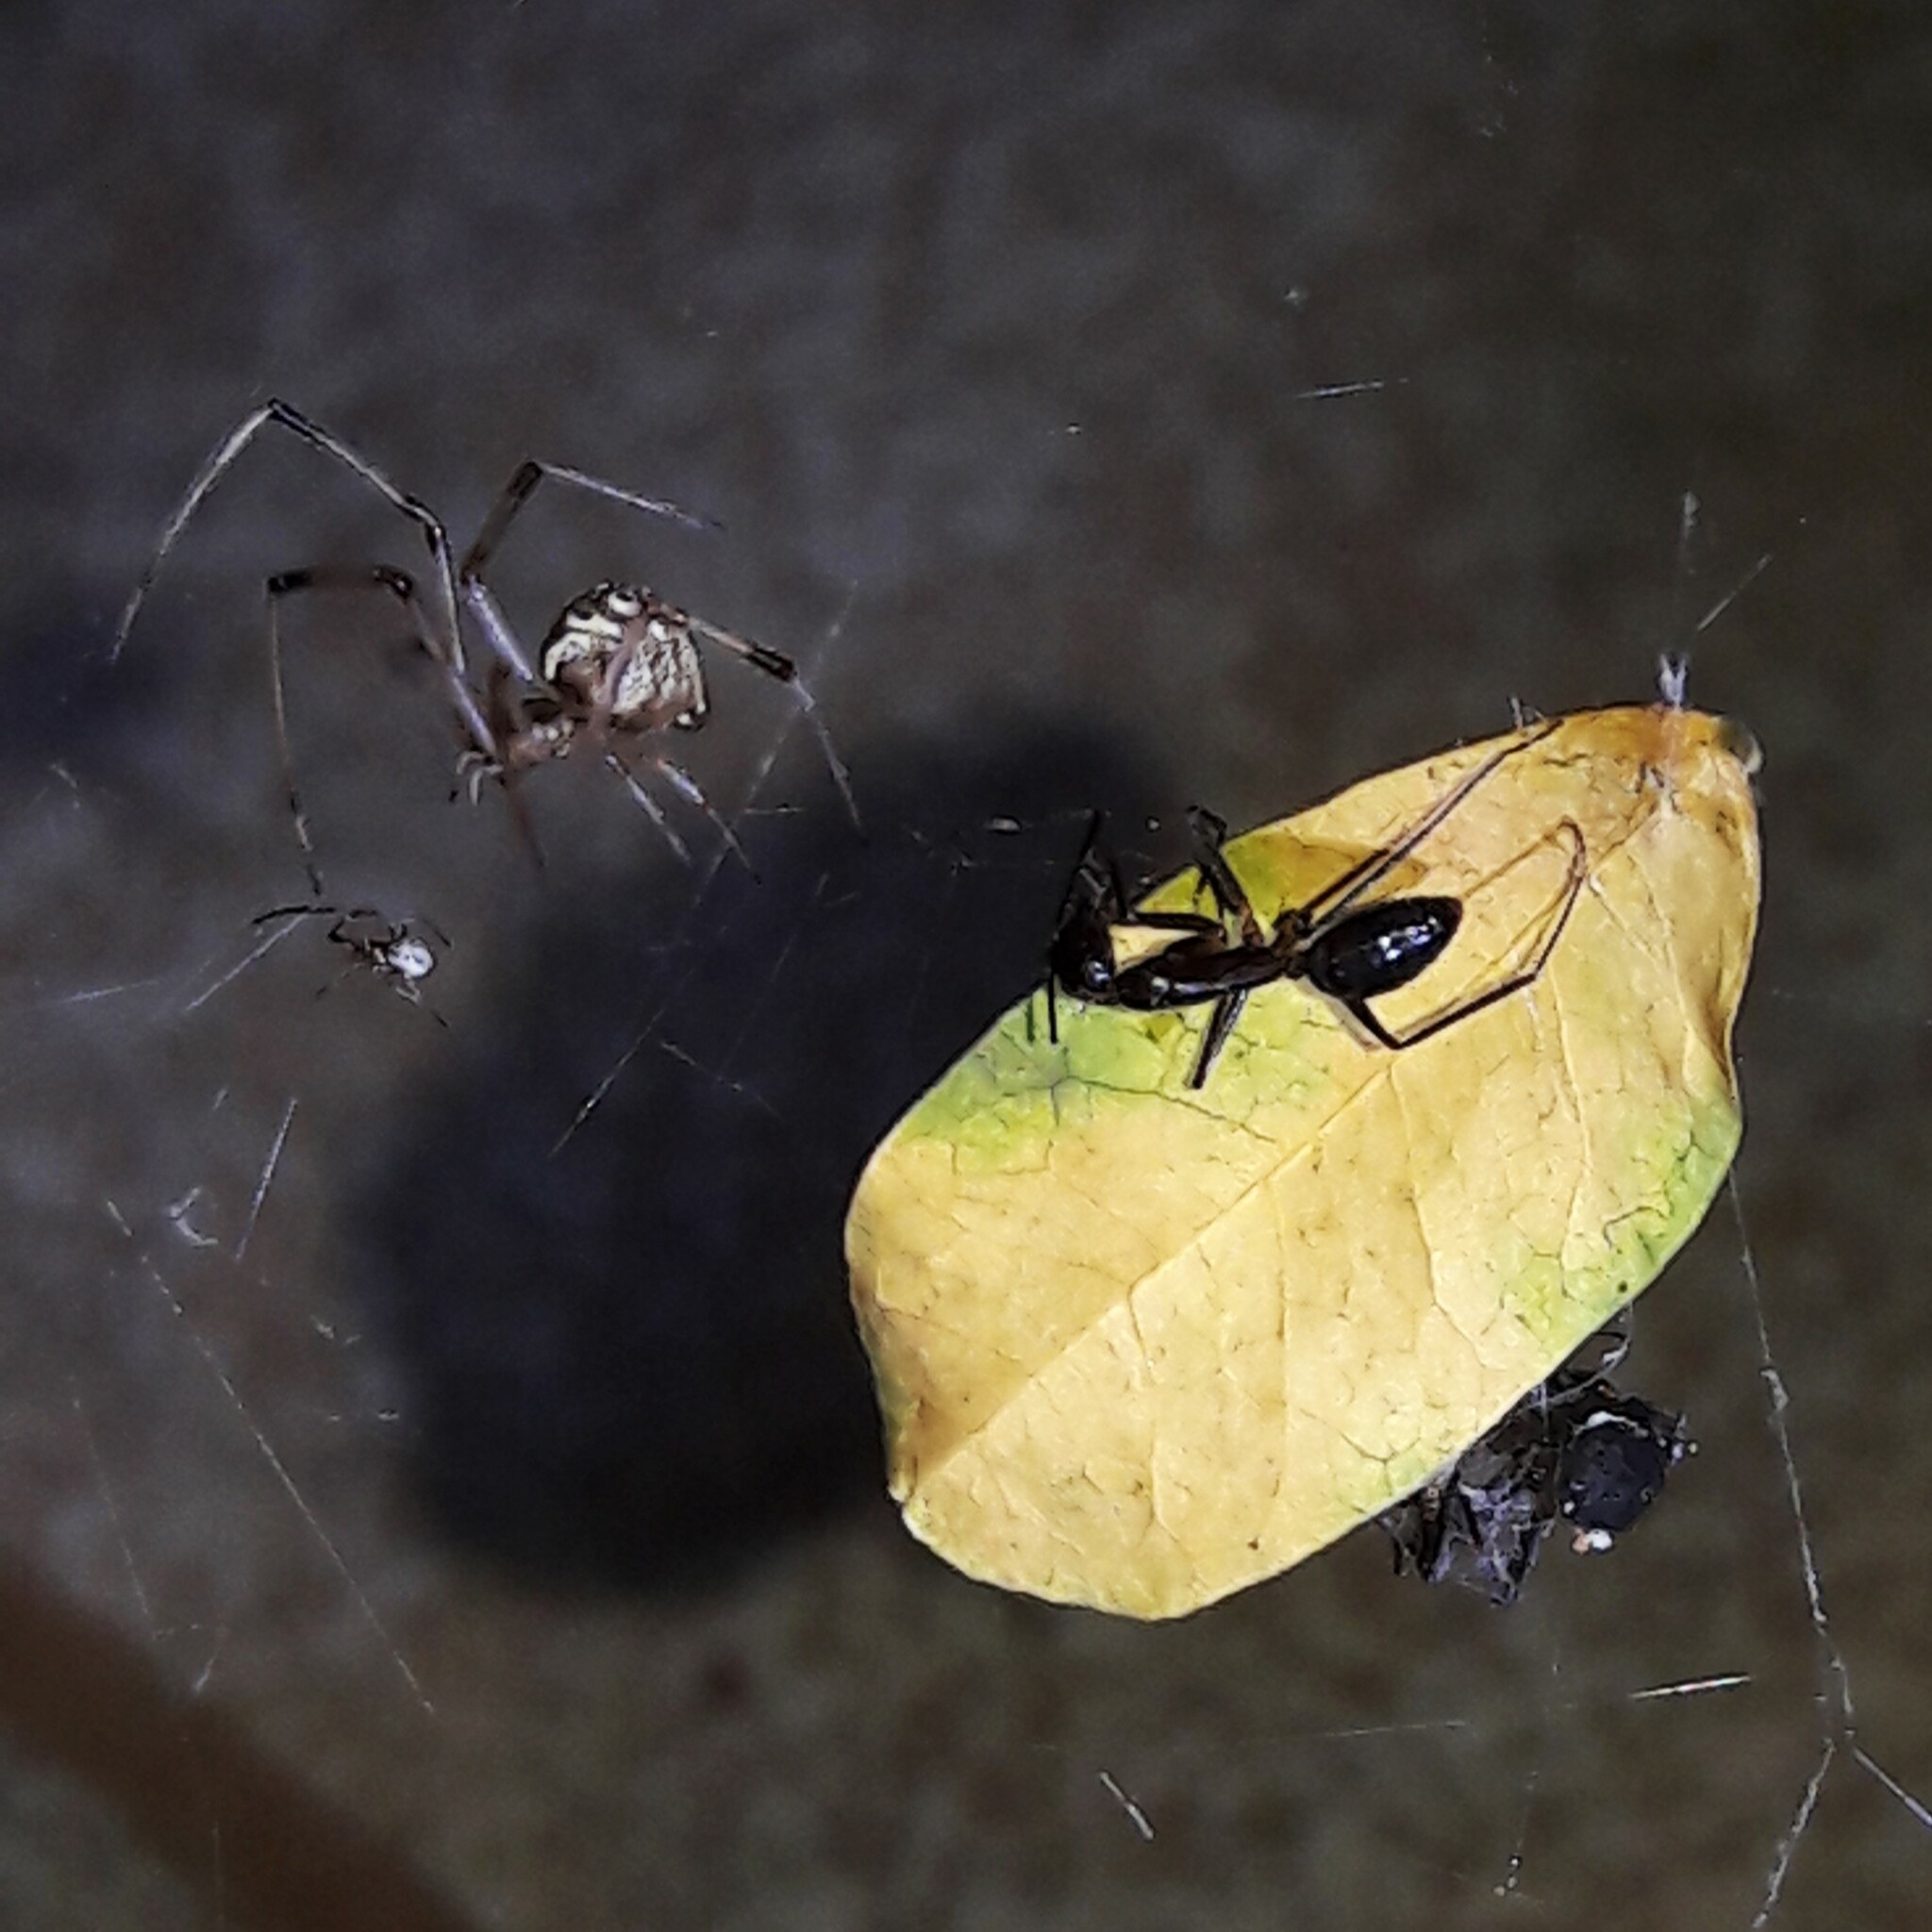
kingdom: Animalia
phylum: Arthropoda
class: Arachnida
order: Araneae
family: Theridiidae
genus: Latrodectus
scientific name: Latrodectus geometricus
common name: Brown widow spider
